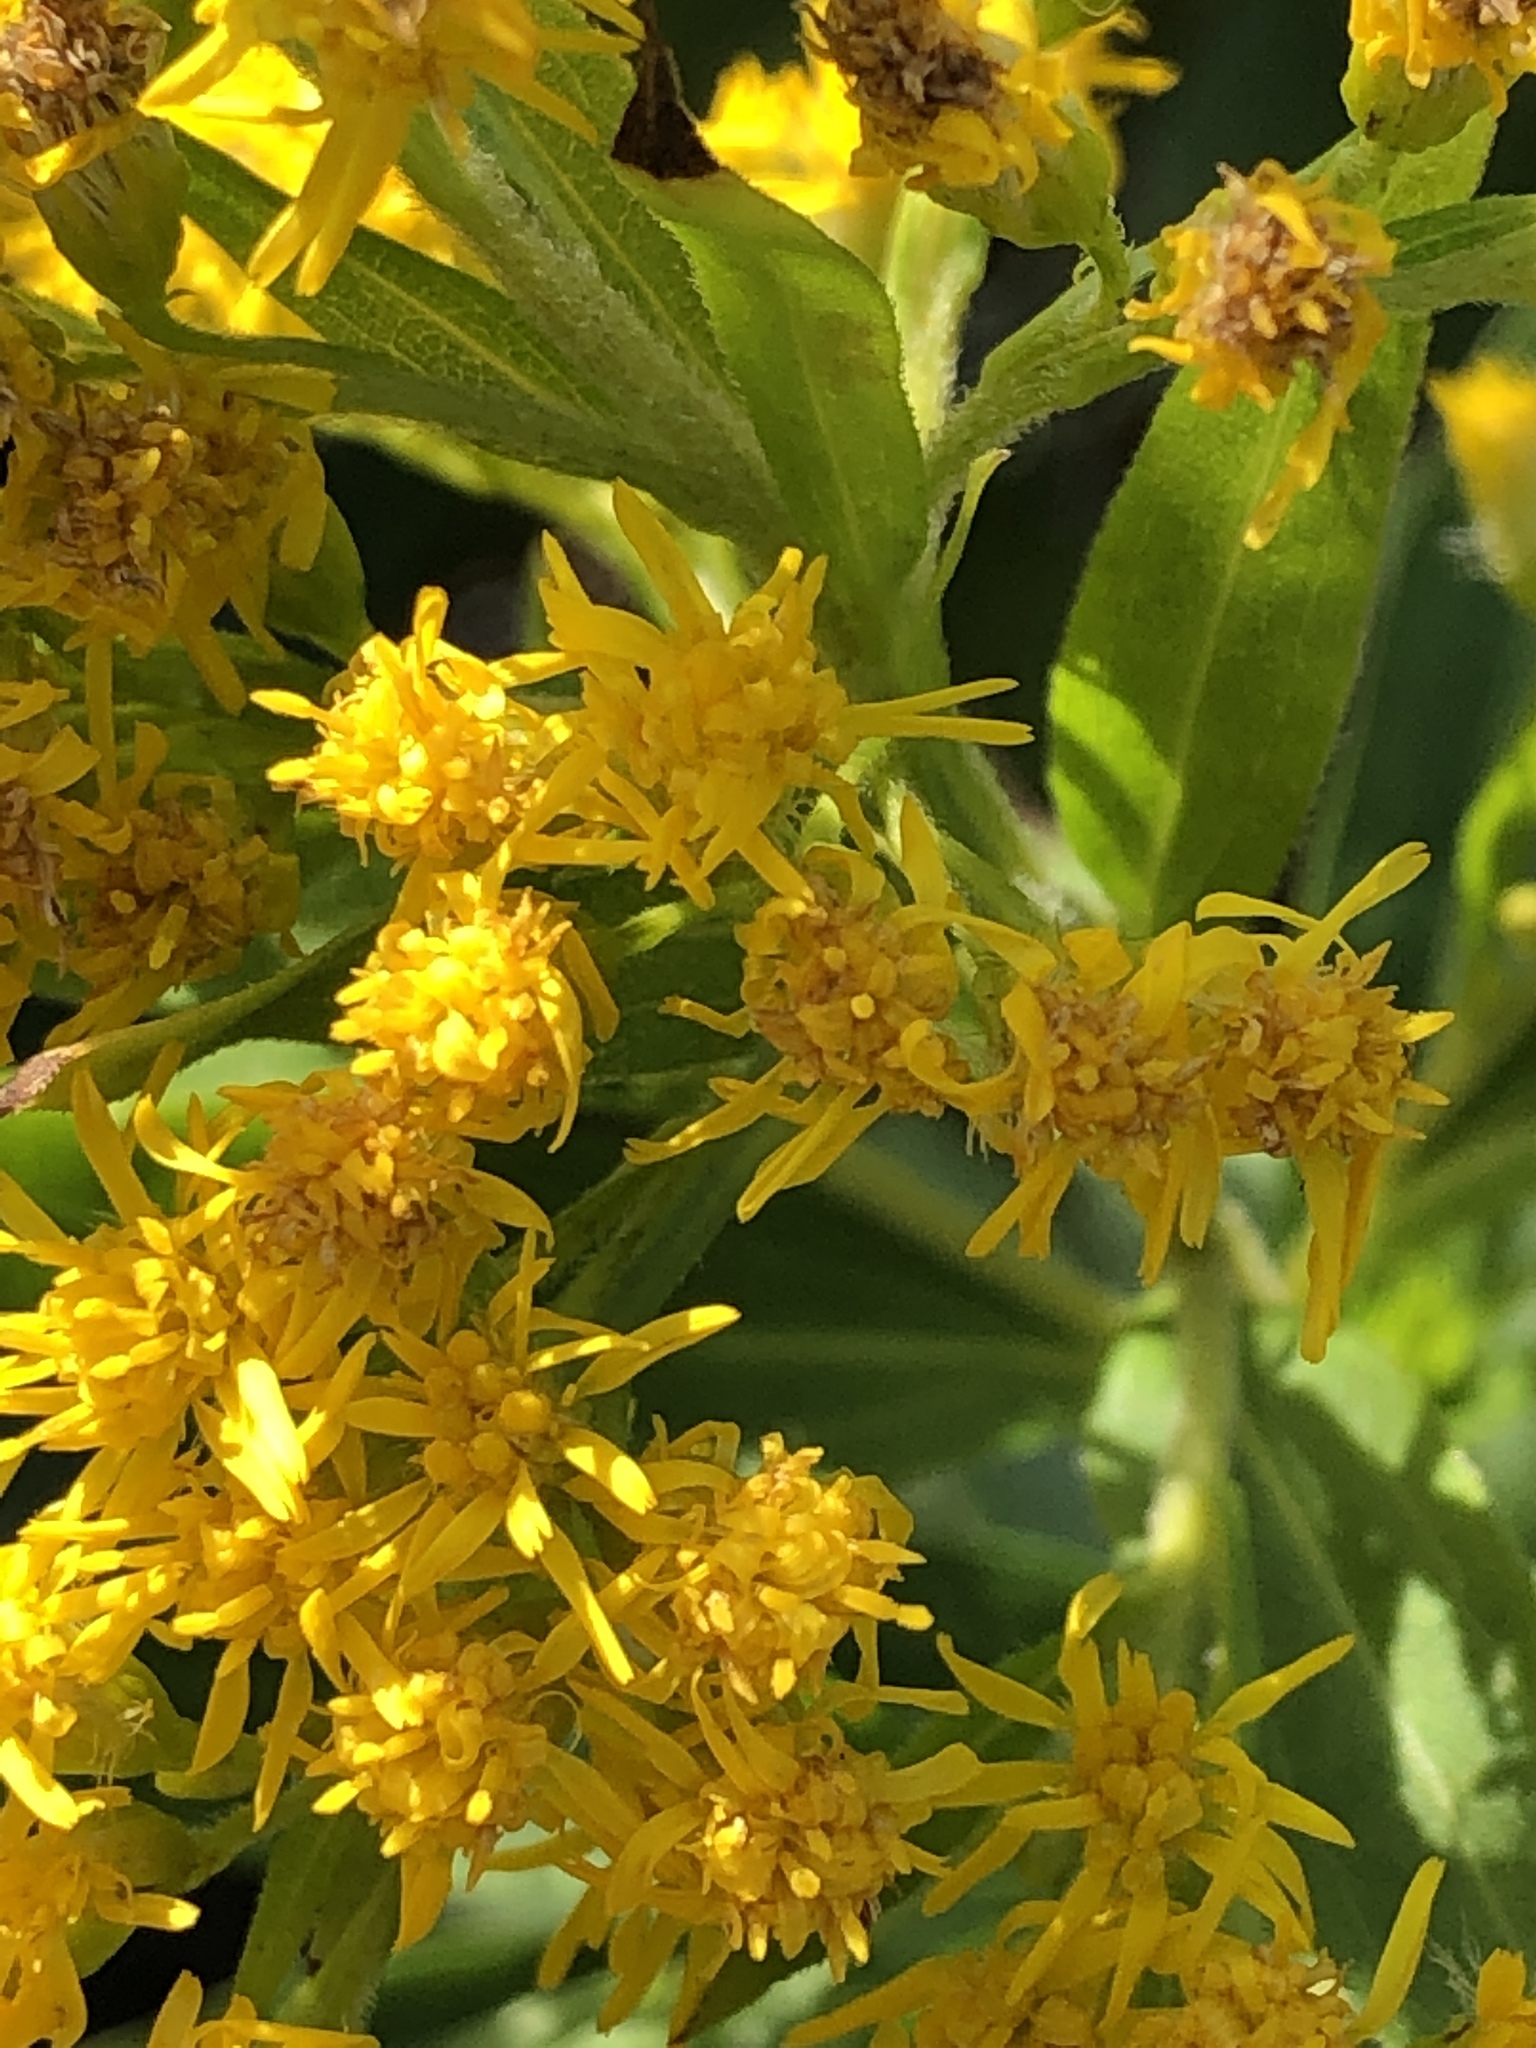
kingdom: Plantae
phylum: Tracheophyta
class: Magnoliopsida
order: Asterales
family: Asteraceae
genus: Solidago
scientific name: Solidago canadensis
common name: Canada goldenrod
